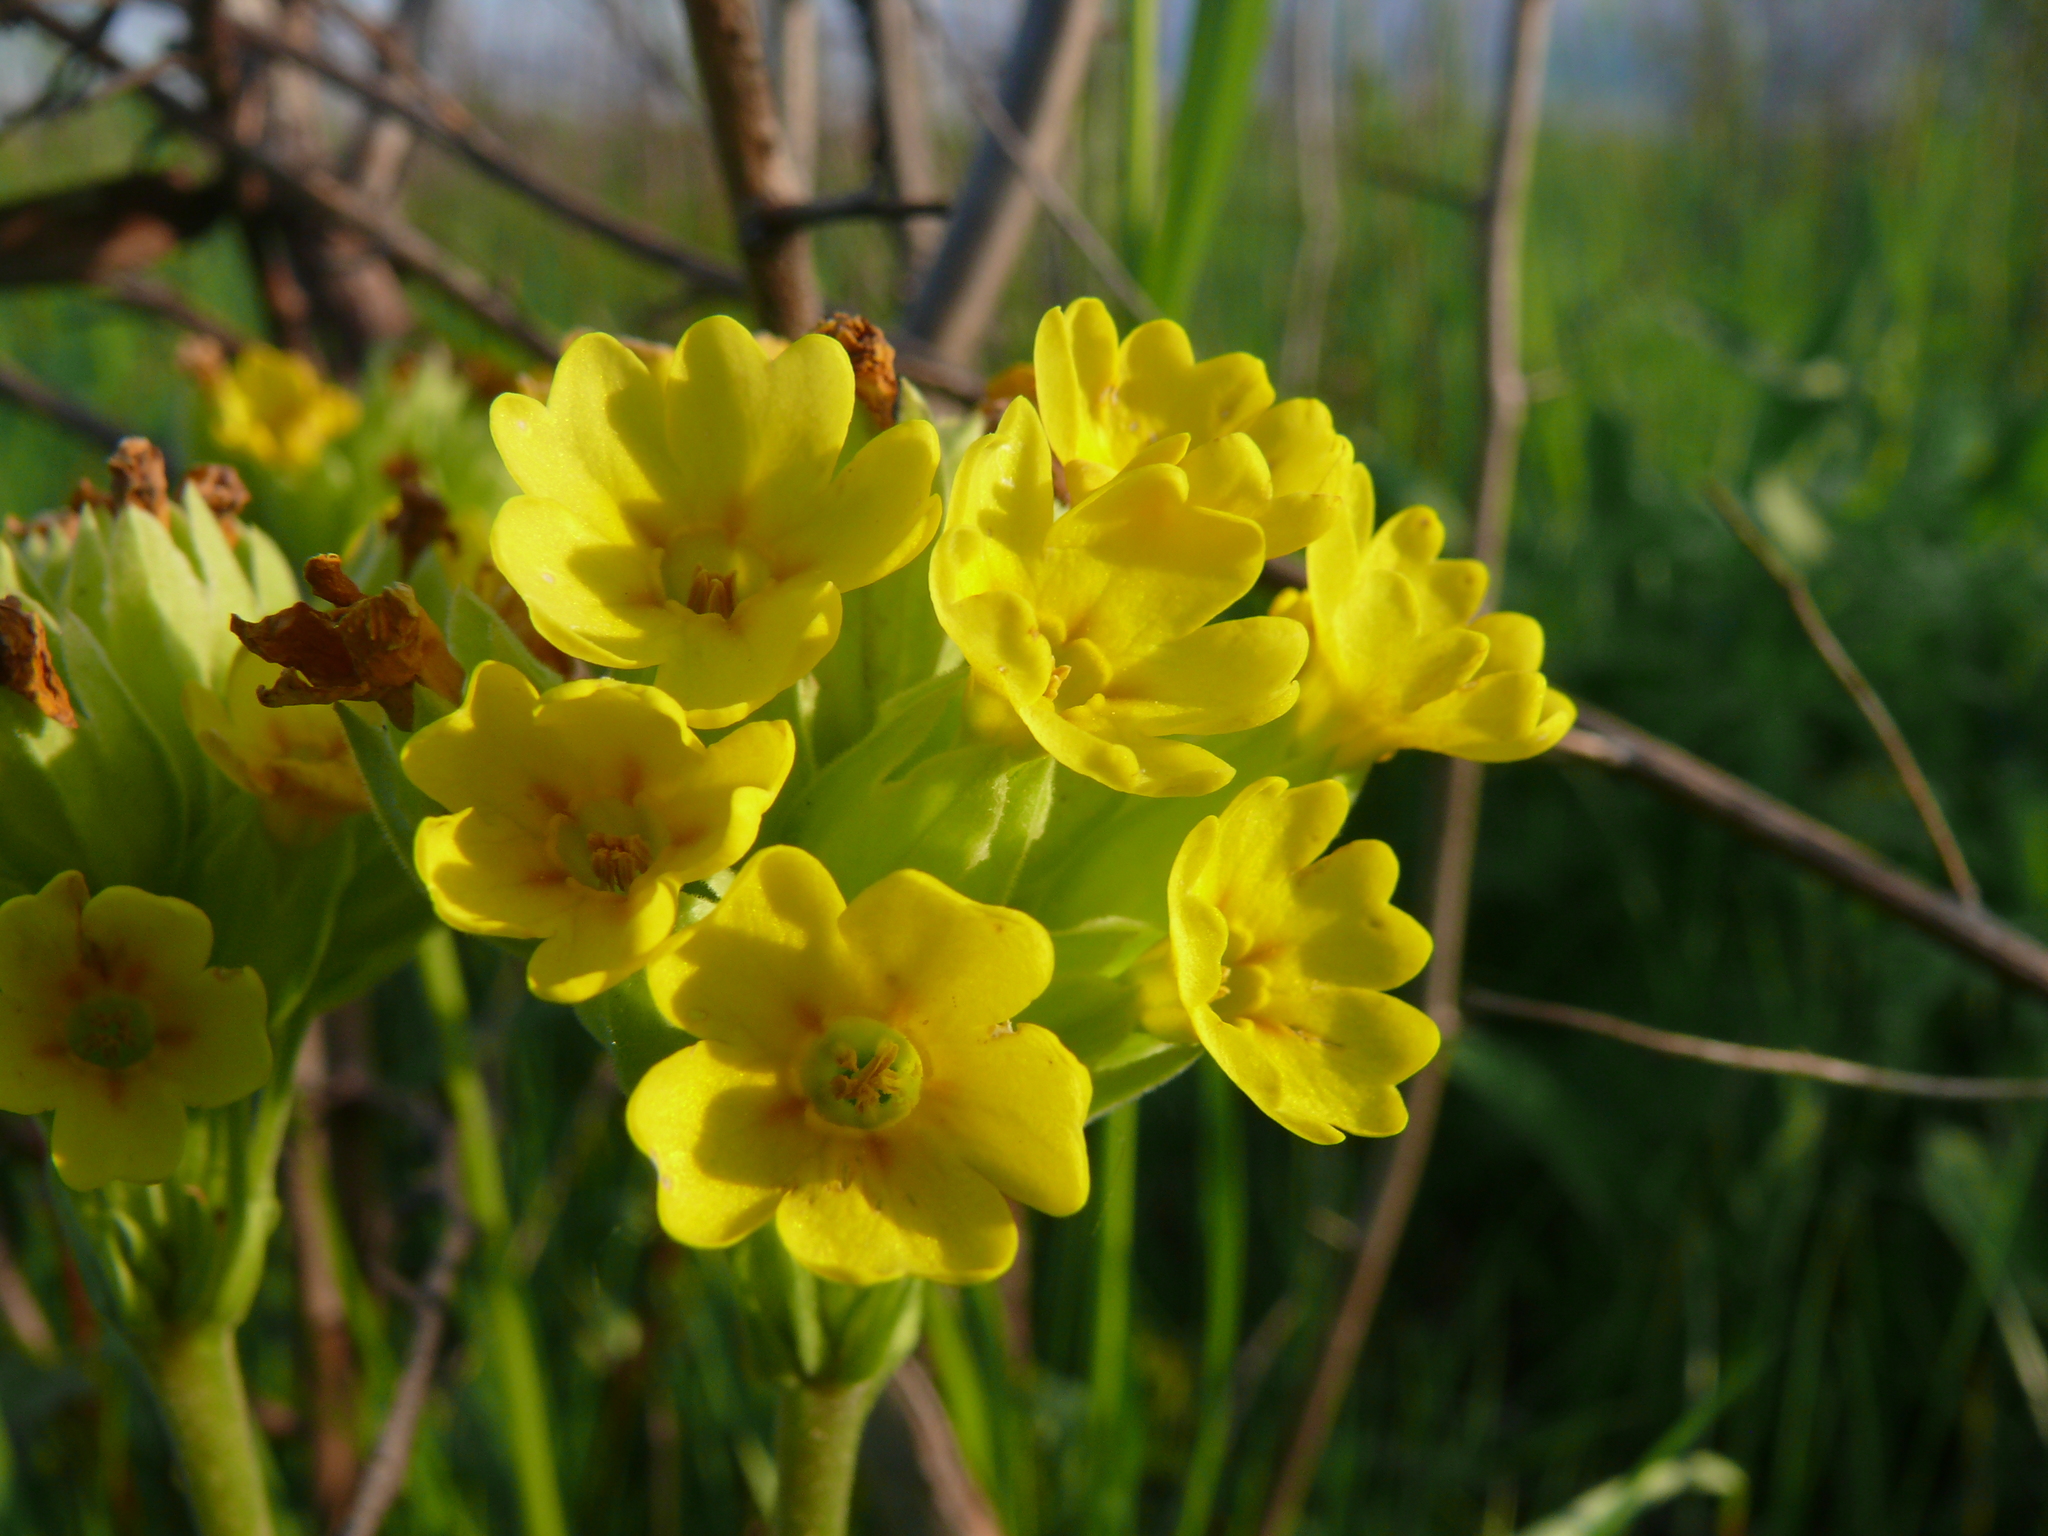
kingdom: Plantae
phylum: Tracheophyta
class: Magnoliopsida
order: Ericales
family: Primulaceae
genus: Primula
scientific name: Primula veris
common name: Cowslip
